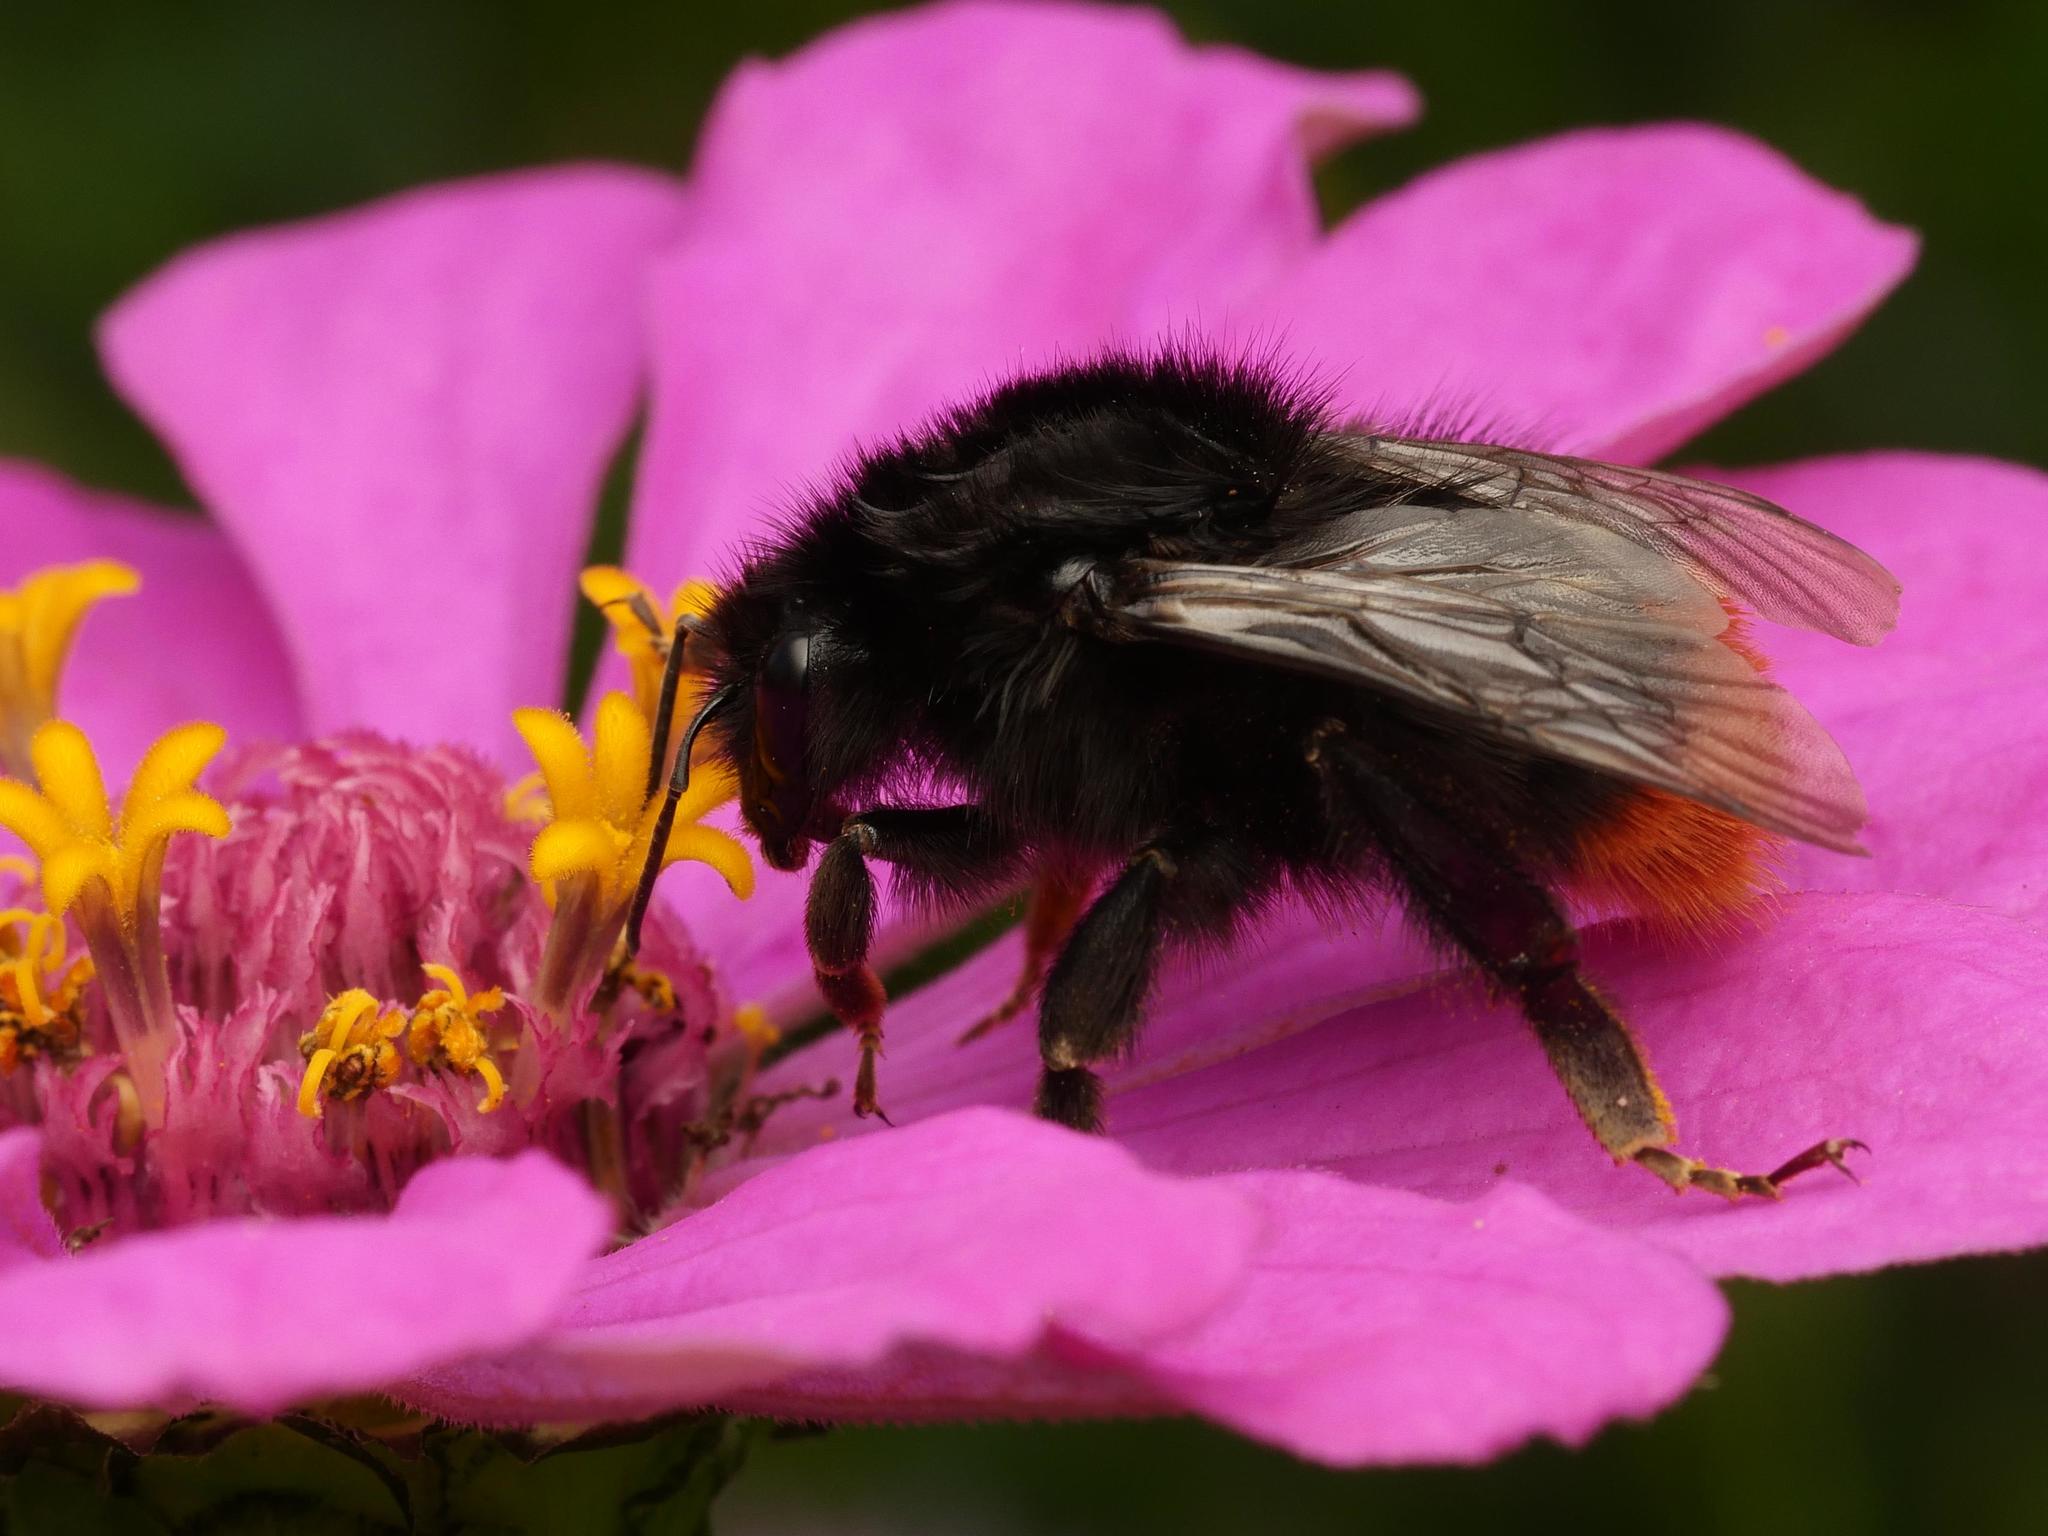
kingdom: Animalia
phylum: Arthropoda
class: Insecta
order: Hymenoptera
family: Apidae
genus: Bombus
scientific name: Bombus lapidarius
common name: Large red-tailed humble-bee
